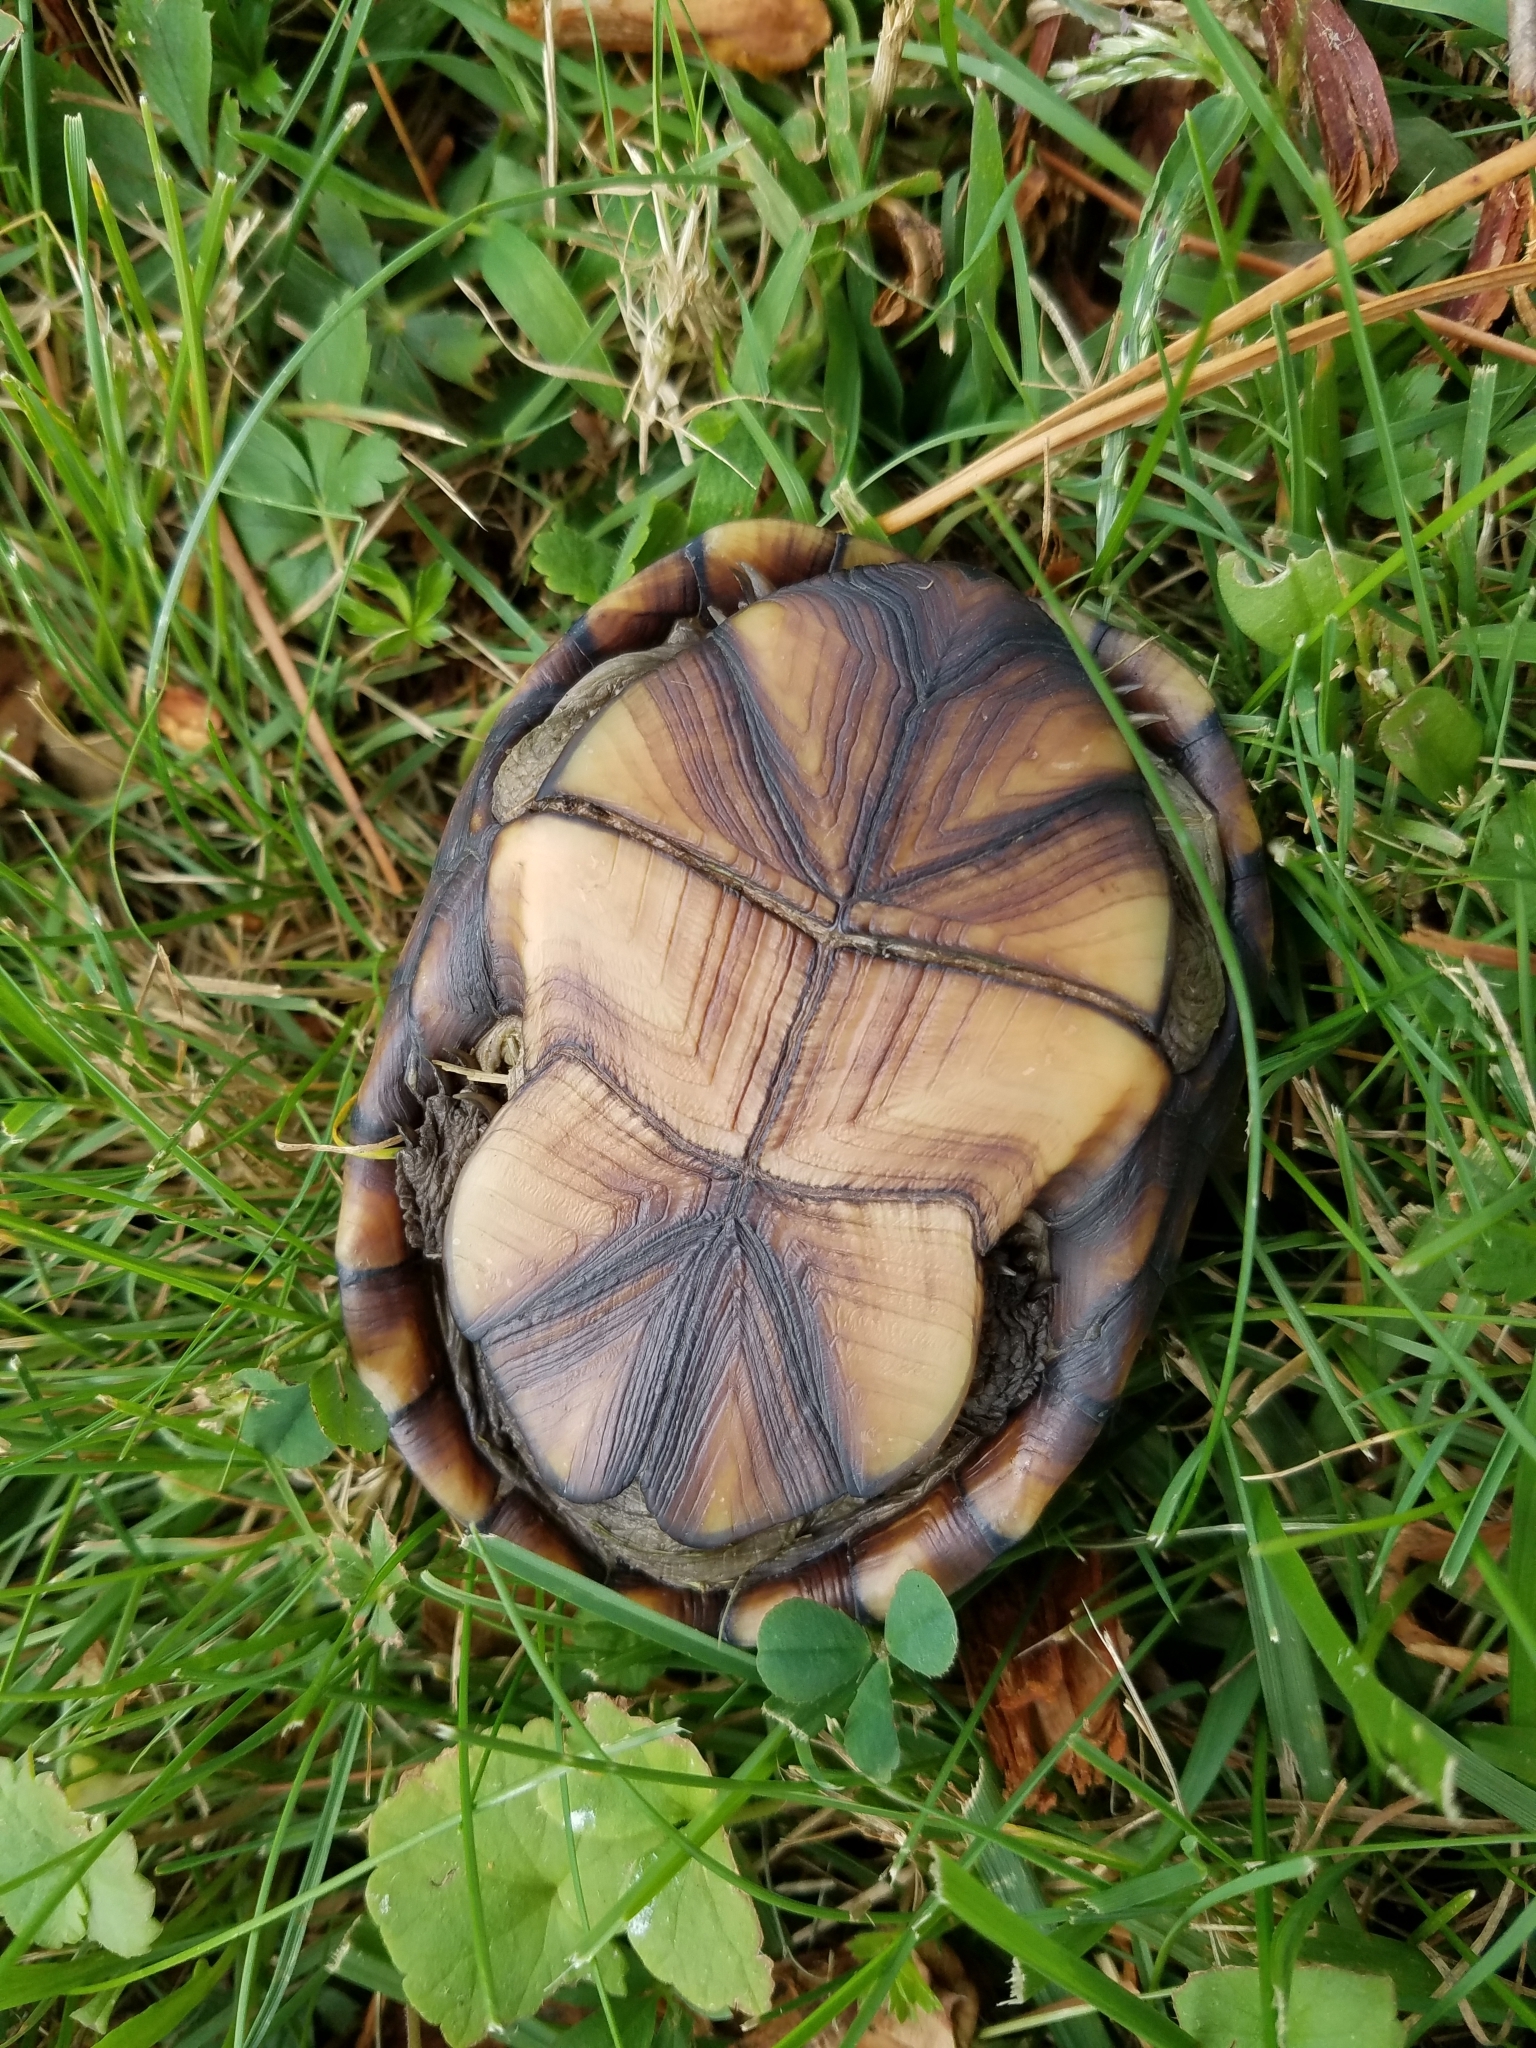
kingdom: Animalia
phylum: Chordata
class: Testudines
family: Kinosternidae
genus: Kinosternon
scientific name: Kinosternon subrubrum
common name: Eastern mud turtle
